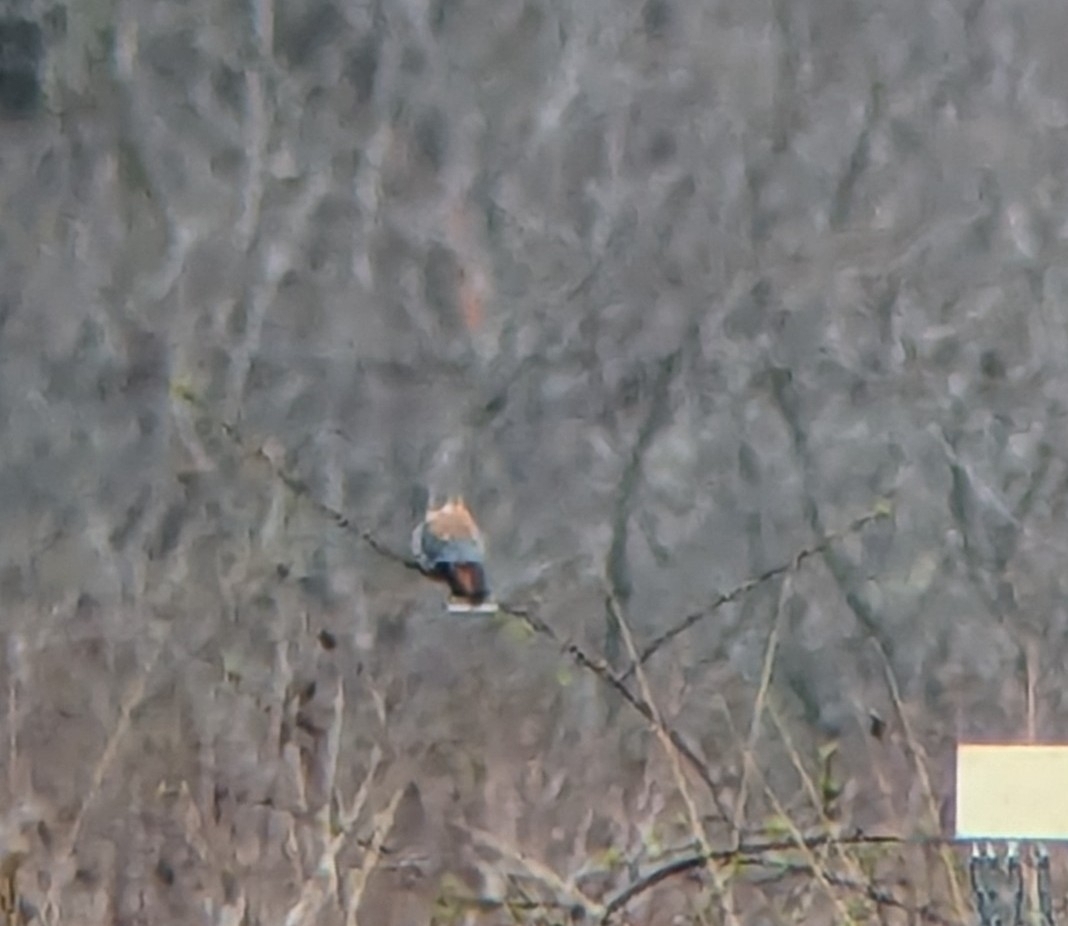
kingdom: Animalia
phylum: Chordata
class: Aves
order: Falconiformes
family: Falconidae
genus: Falco
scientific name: Falco sparverius
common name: American kestrel
